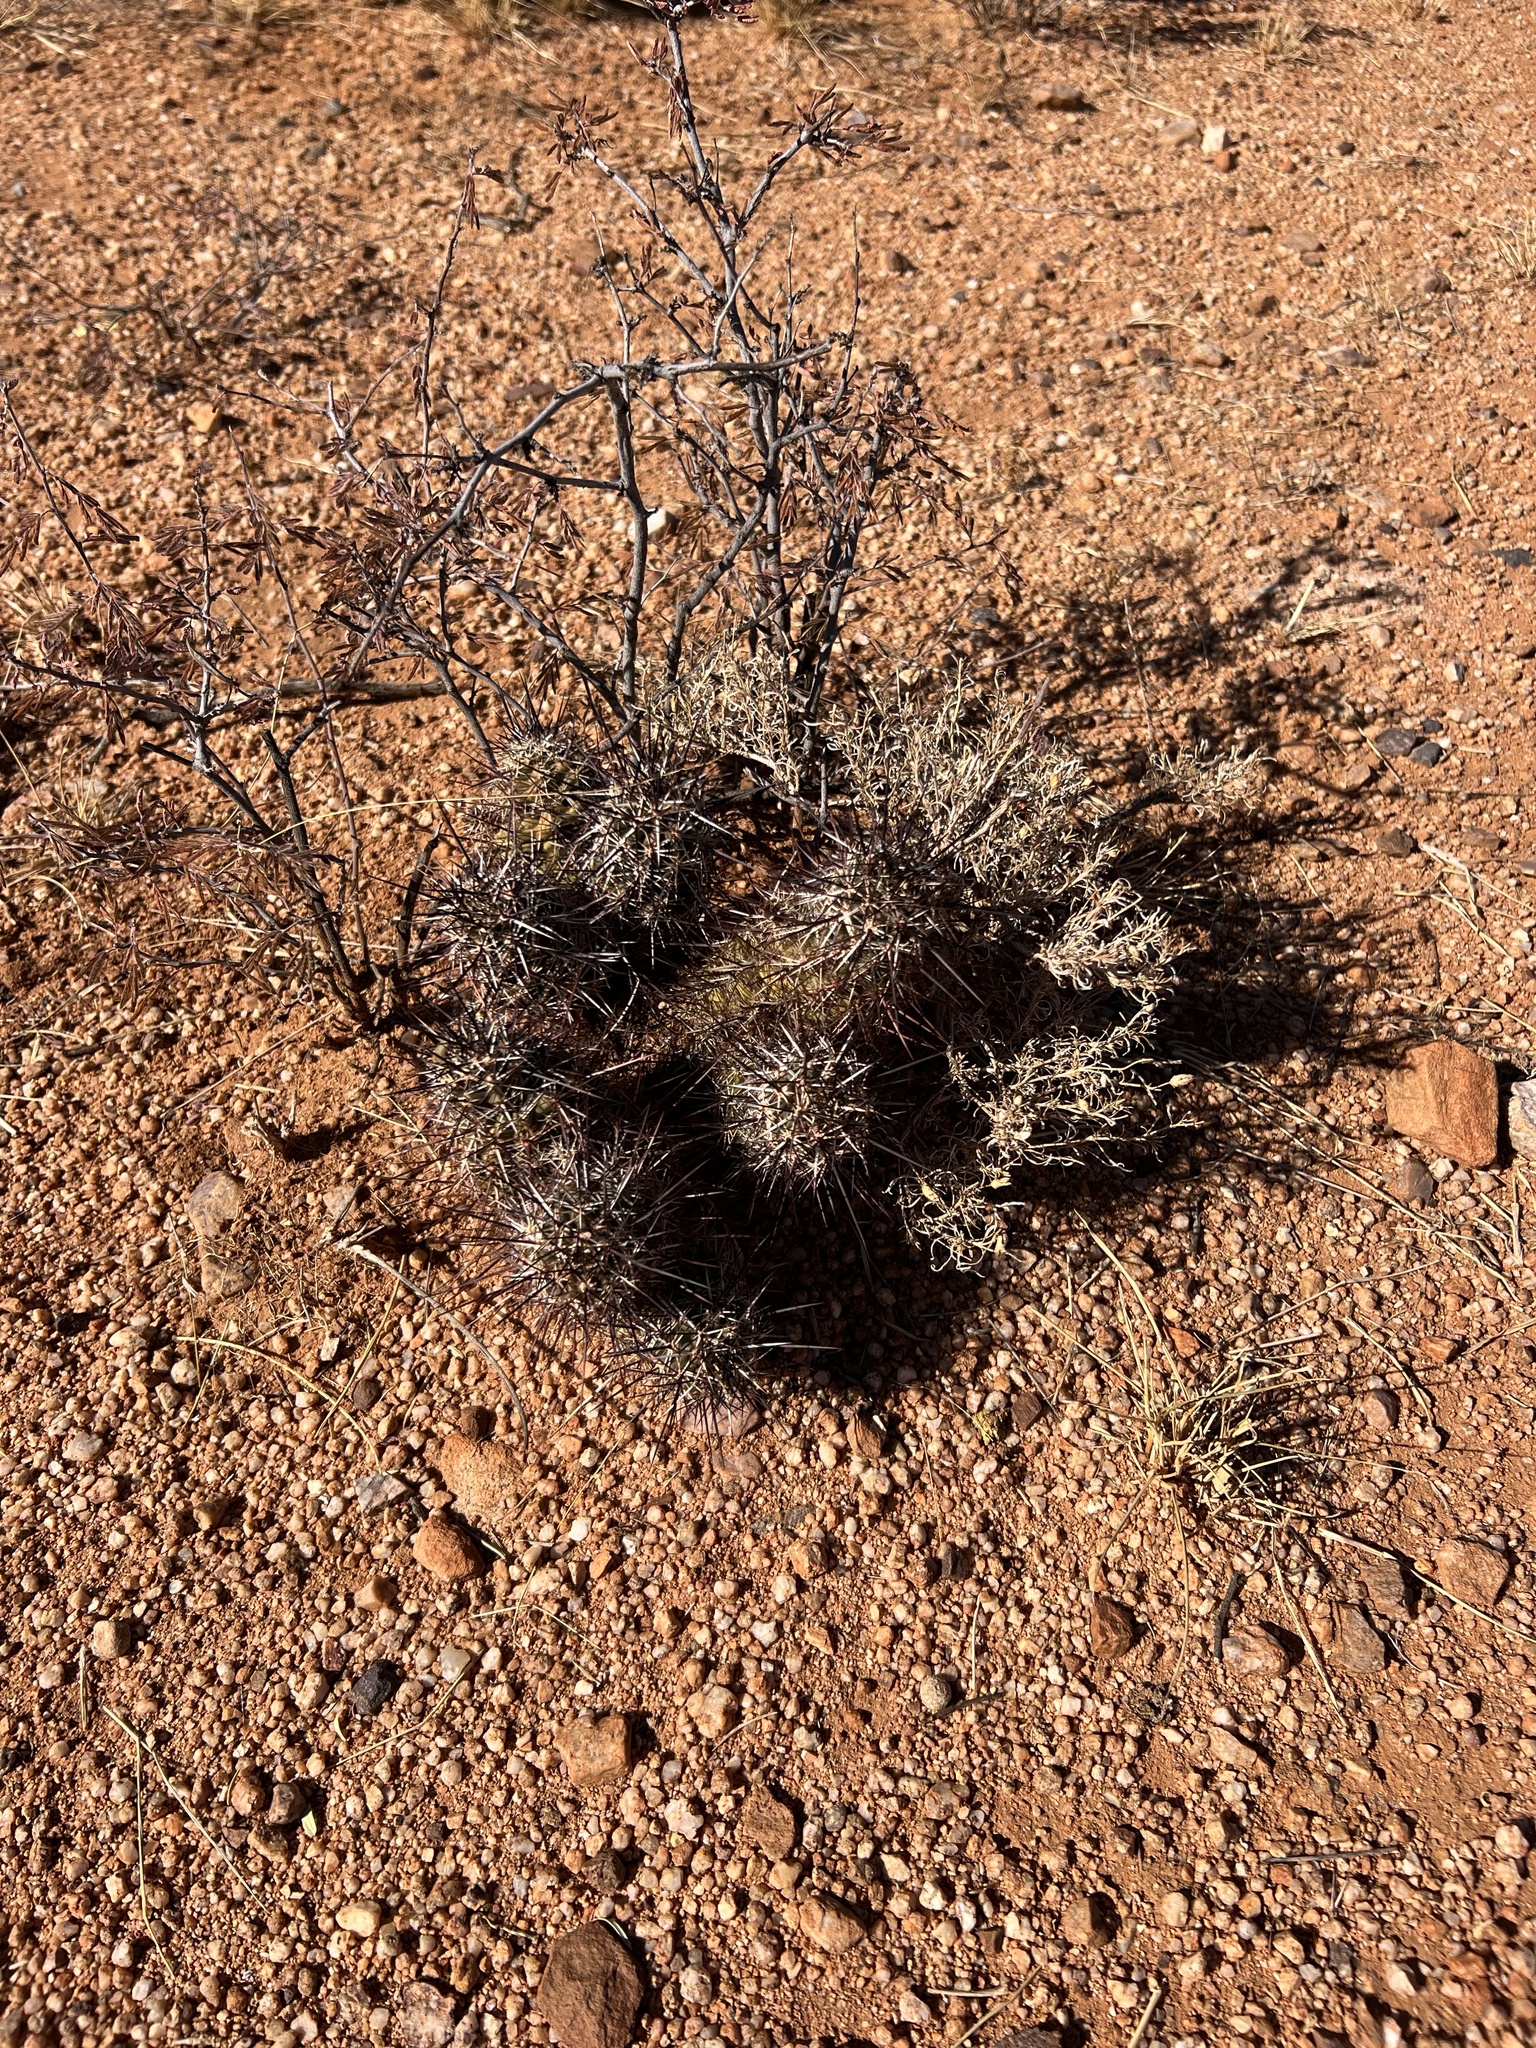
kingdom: Plantae
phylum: Tracheophyta
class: Magnoliopsida
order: Caryophyllales
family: Cactaceae
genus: Echinocereus
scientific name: Echinocereus fasciculatus
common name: Bundle hedgehog
